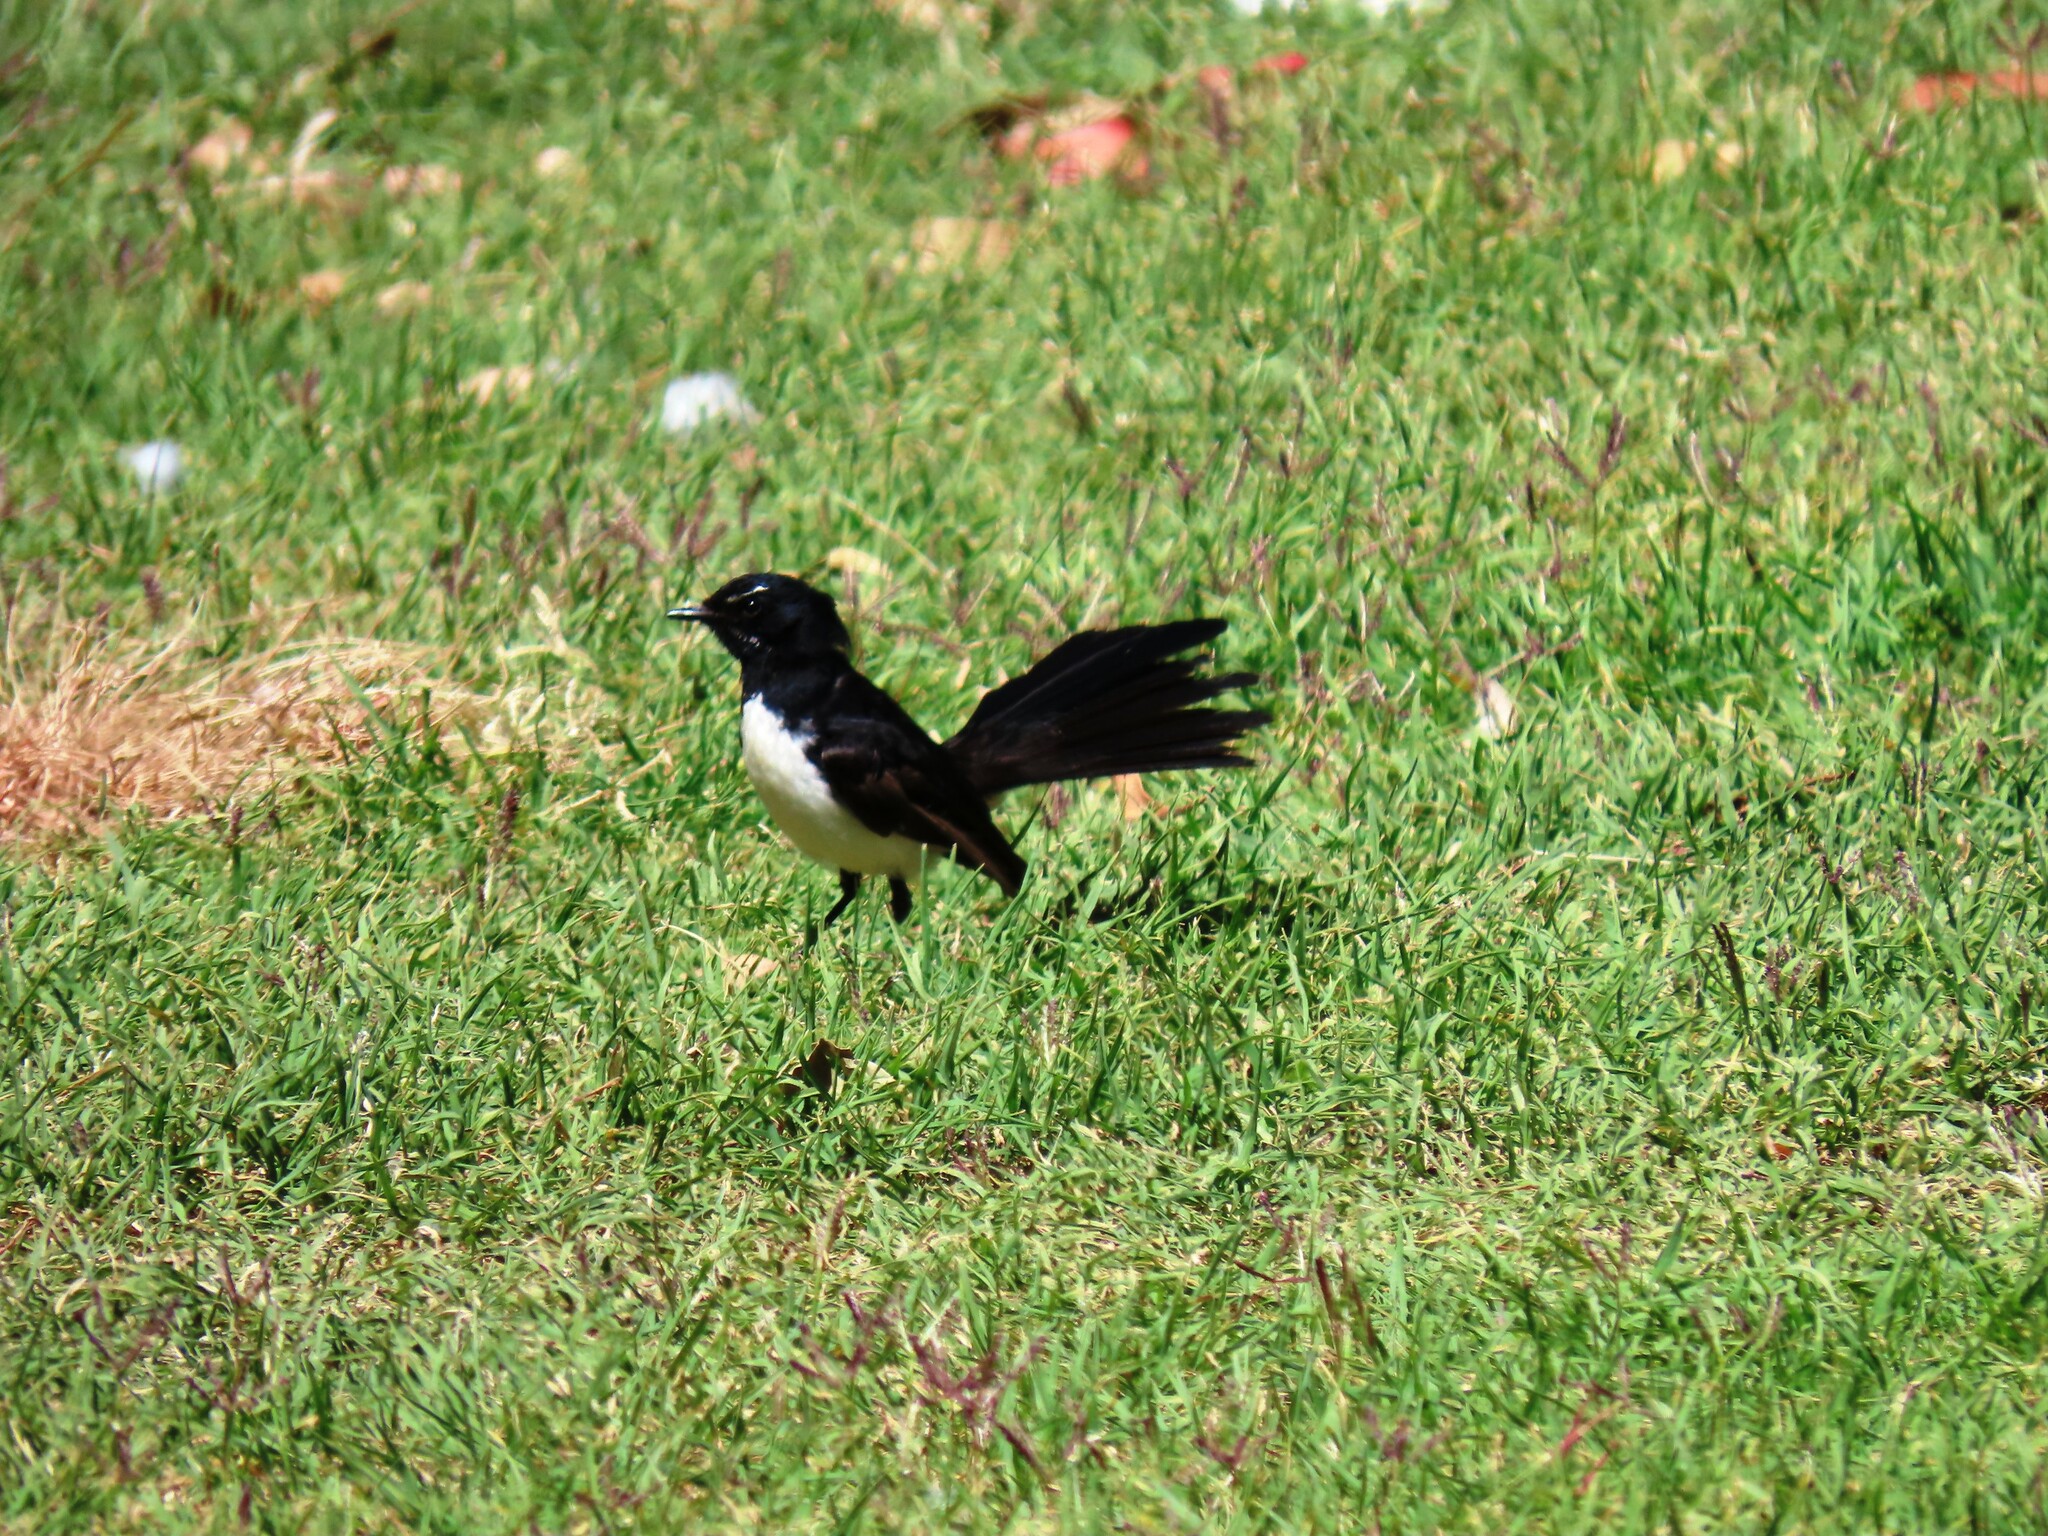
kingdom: Animalia
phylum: Chordata
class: Aves
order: Passeriformes
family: Rhipiduridae
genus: Rhipidura
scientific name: Rhipidura leucophrys
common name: Willie wagtail
